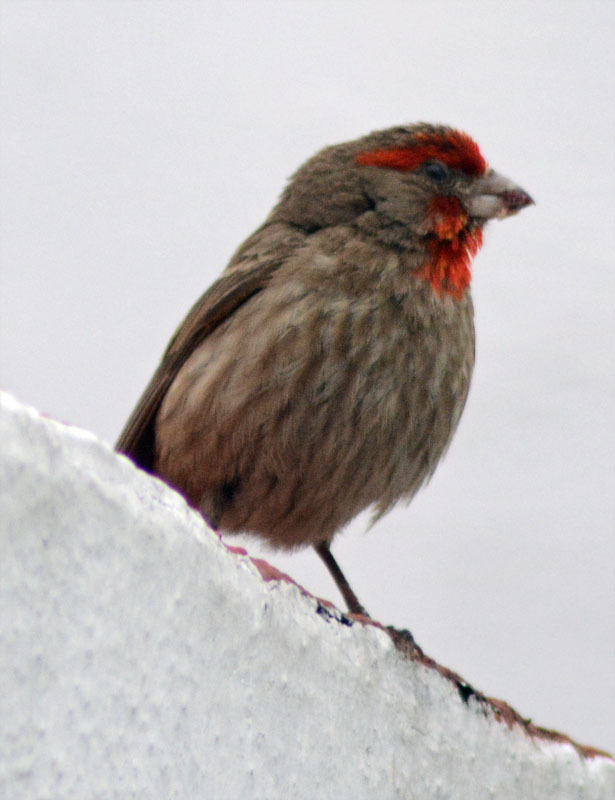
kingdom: Animalia
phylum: Chordata
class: Aves
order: Passeriformes
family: Fringillidae
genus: Haemorhous
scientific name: Haemorhous mexicanus
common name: House finch
